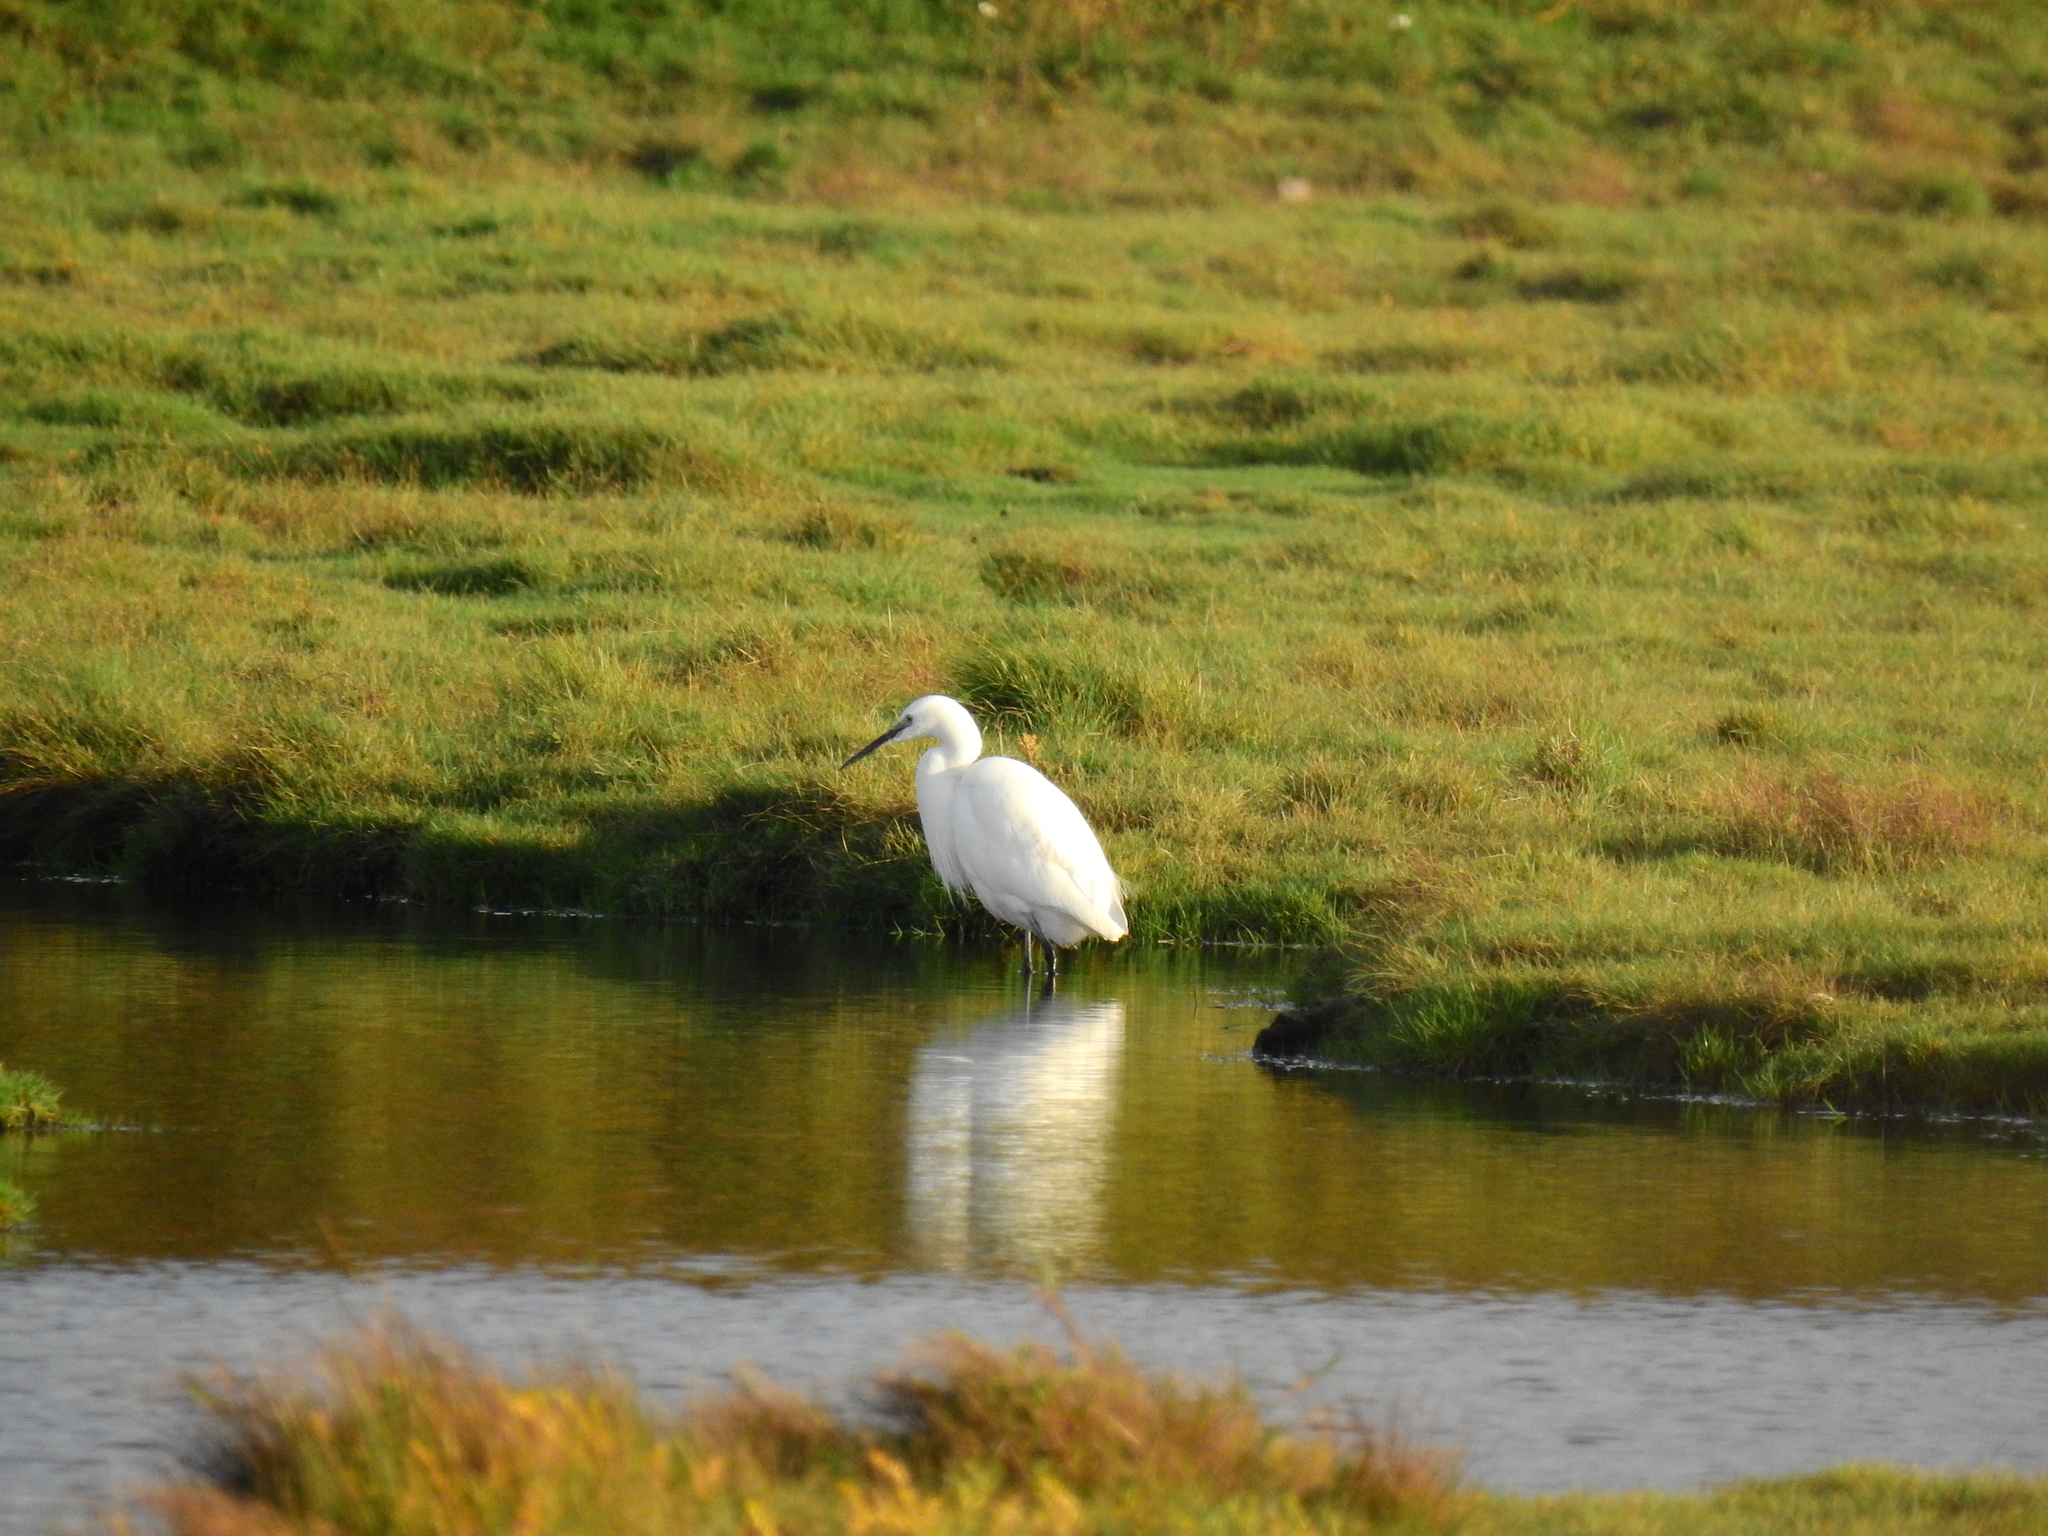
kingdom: Animalia
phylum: Chordata
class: Aves
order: Pelecaniformes
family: Ardeidae
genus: Egretta
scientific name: Egretta garzetta
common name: Little egret
